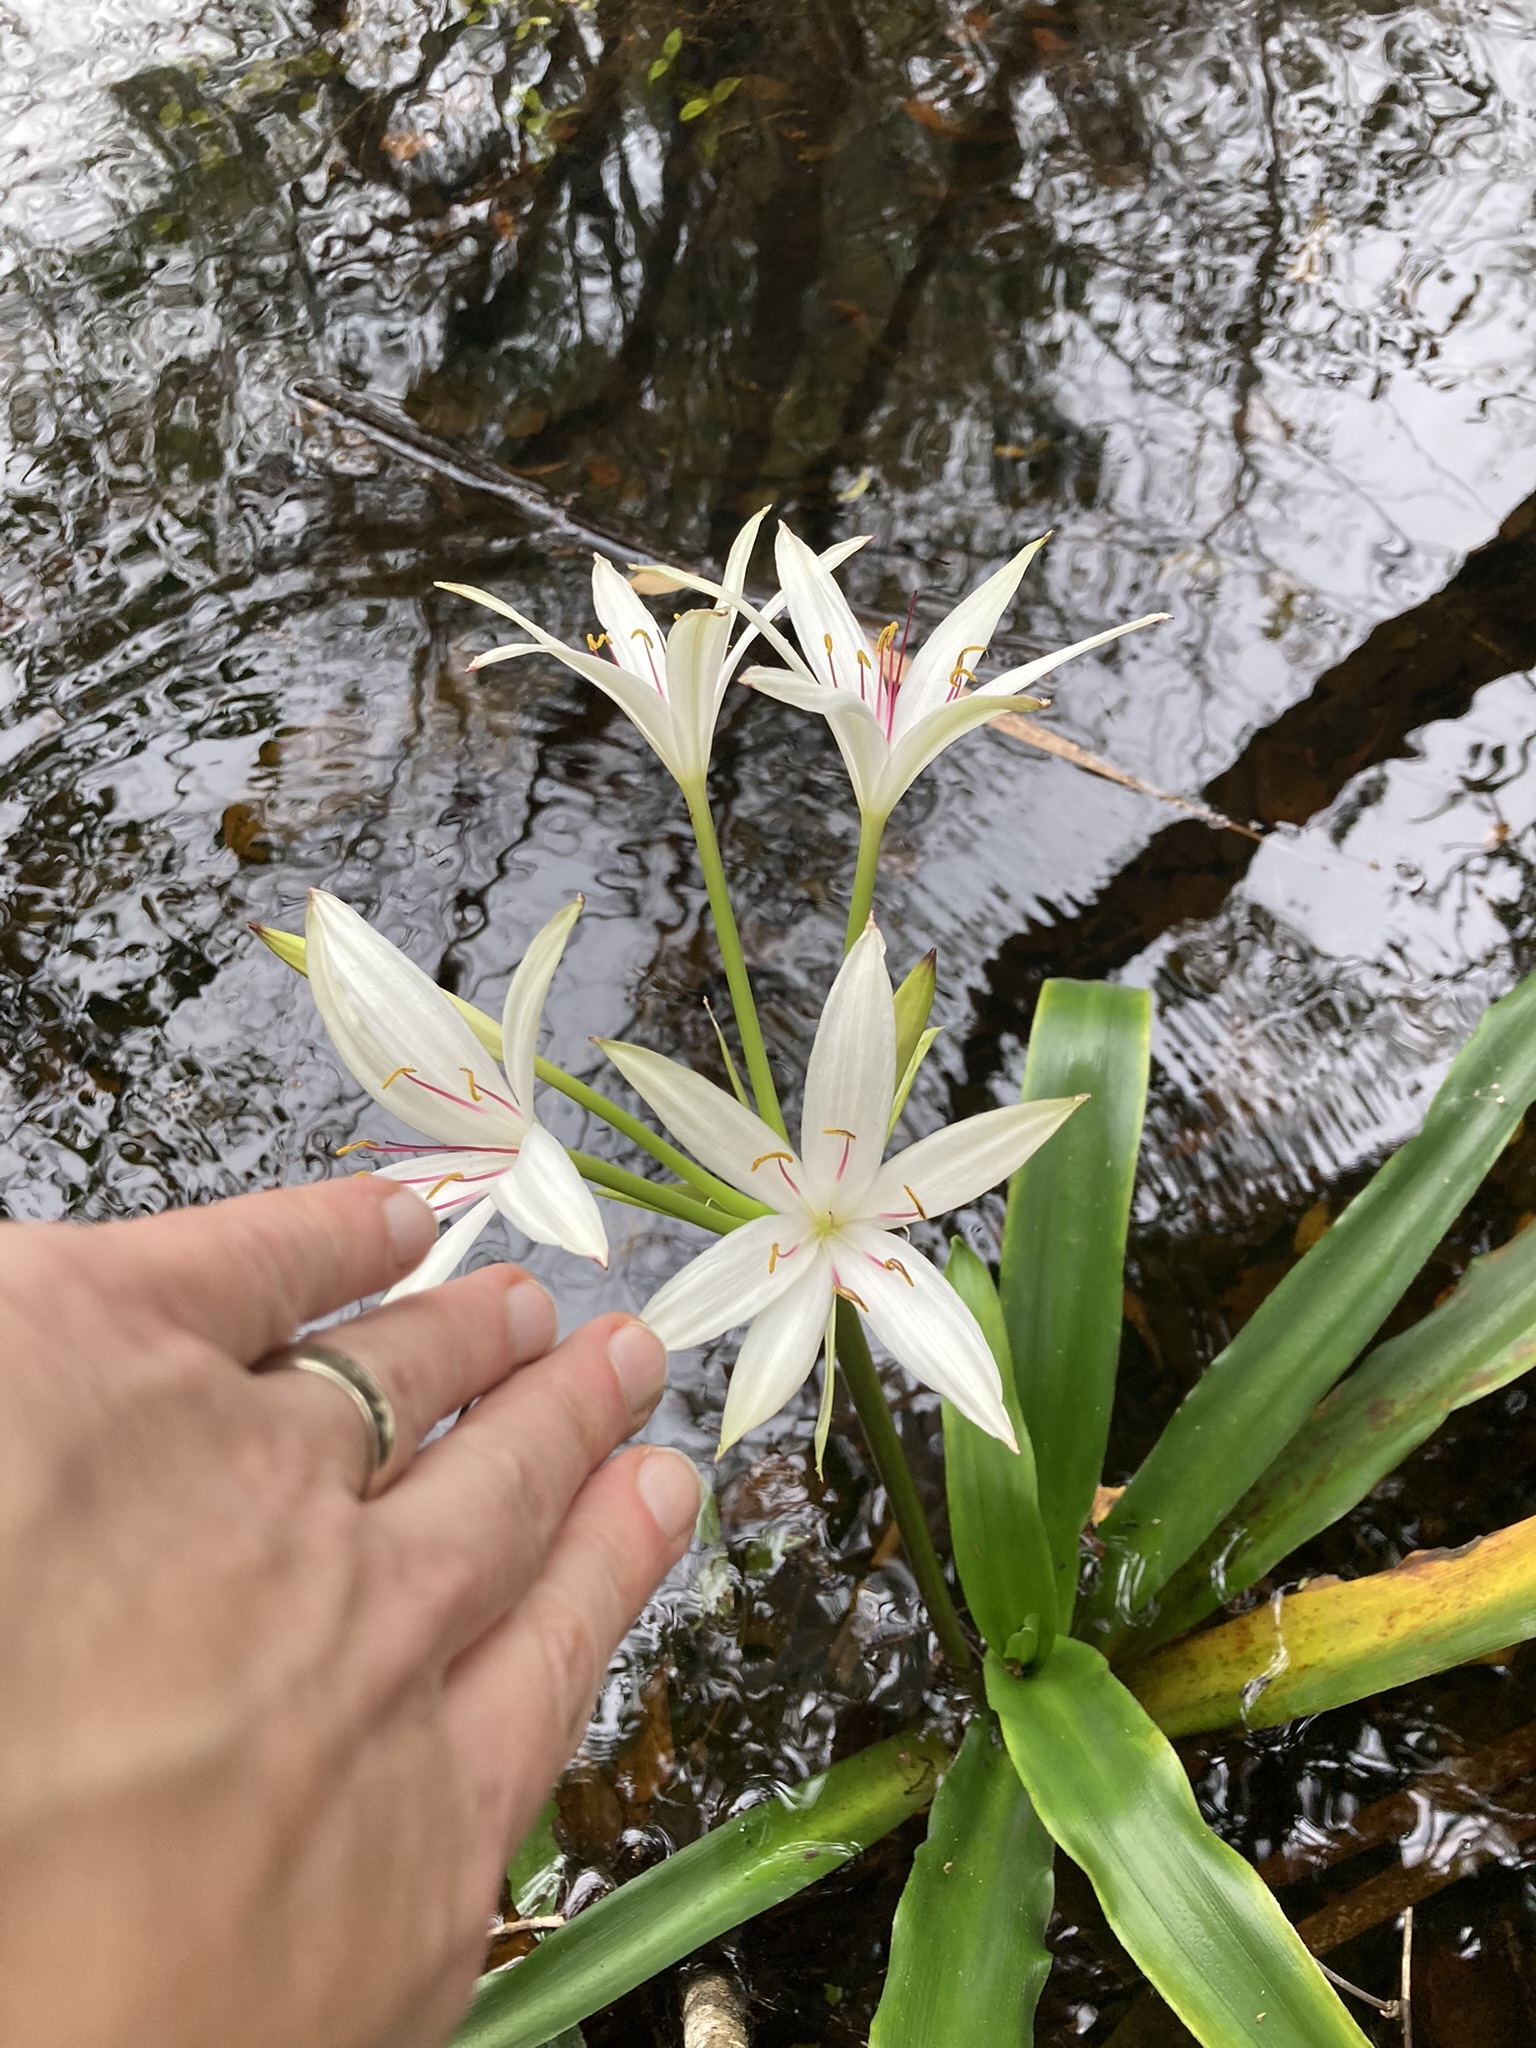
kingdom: Plantae
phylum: Tracheophyta
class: Liliopsida
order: Asparagales
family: Amaryllidaceae
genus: Crinum
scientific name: Crinum americanum
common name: Florida swamp-lily
